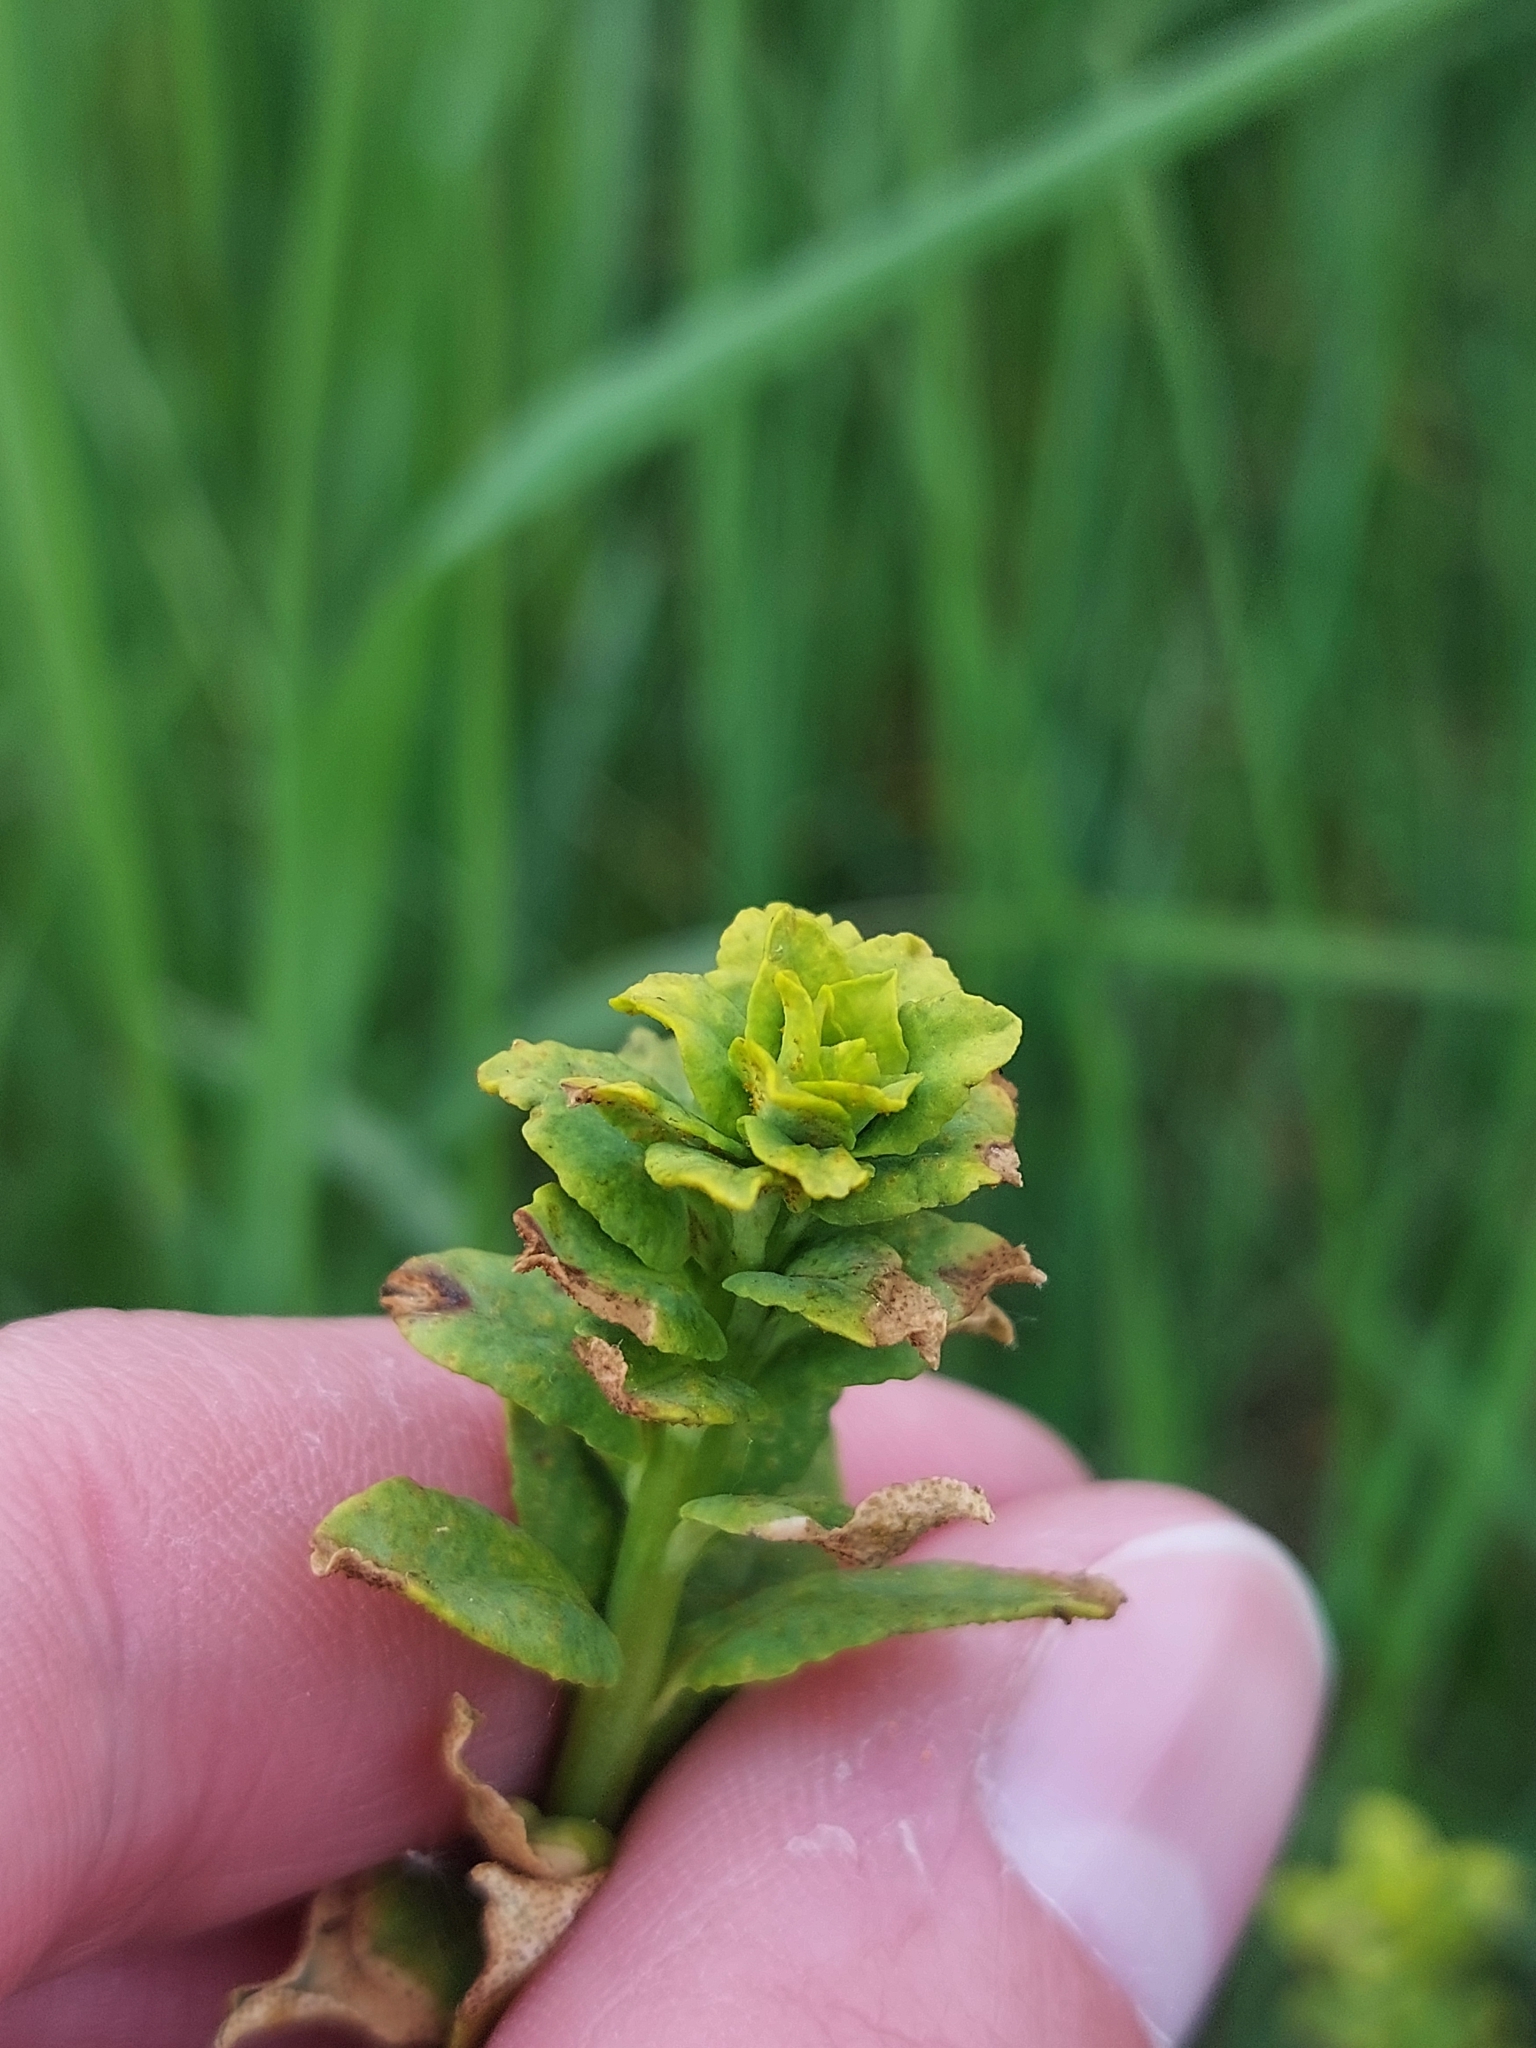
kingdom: Fungi
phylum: Basidiomycota
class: Pucciniomycetes
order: Pucciniales
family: Pucciniaceae
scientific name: Pucciniaceae
